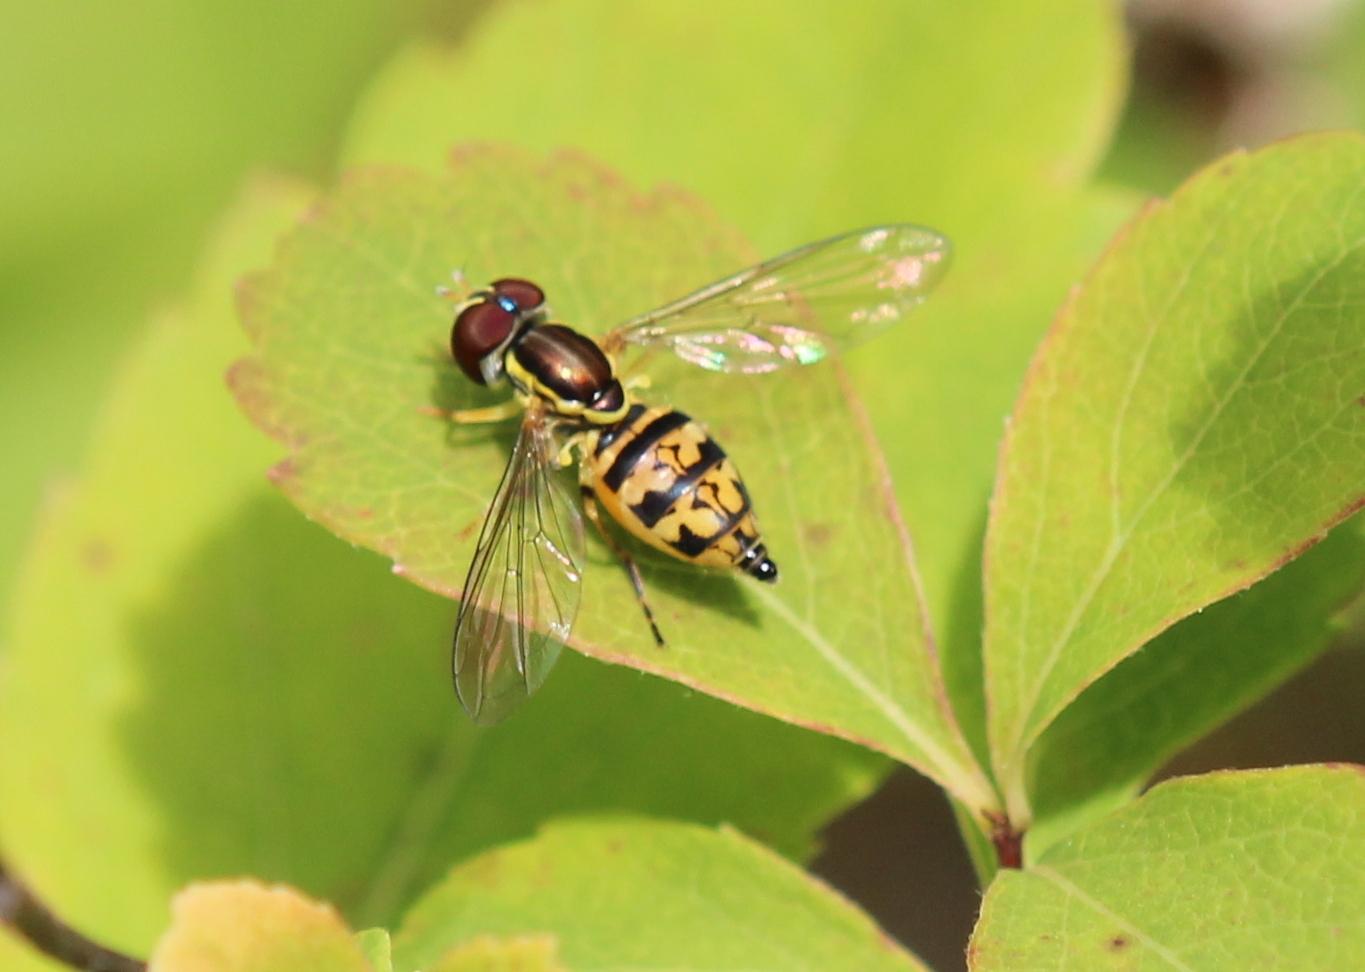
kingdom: Animalia
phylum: Arthropoda
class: Insecta
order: Diptera
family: Syrphidae
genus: Toxomerus
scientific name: Toxomerus geminatus
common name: Eastern calligrapher
